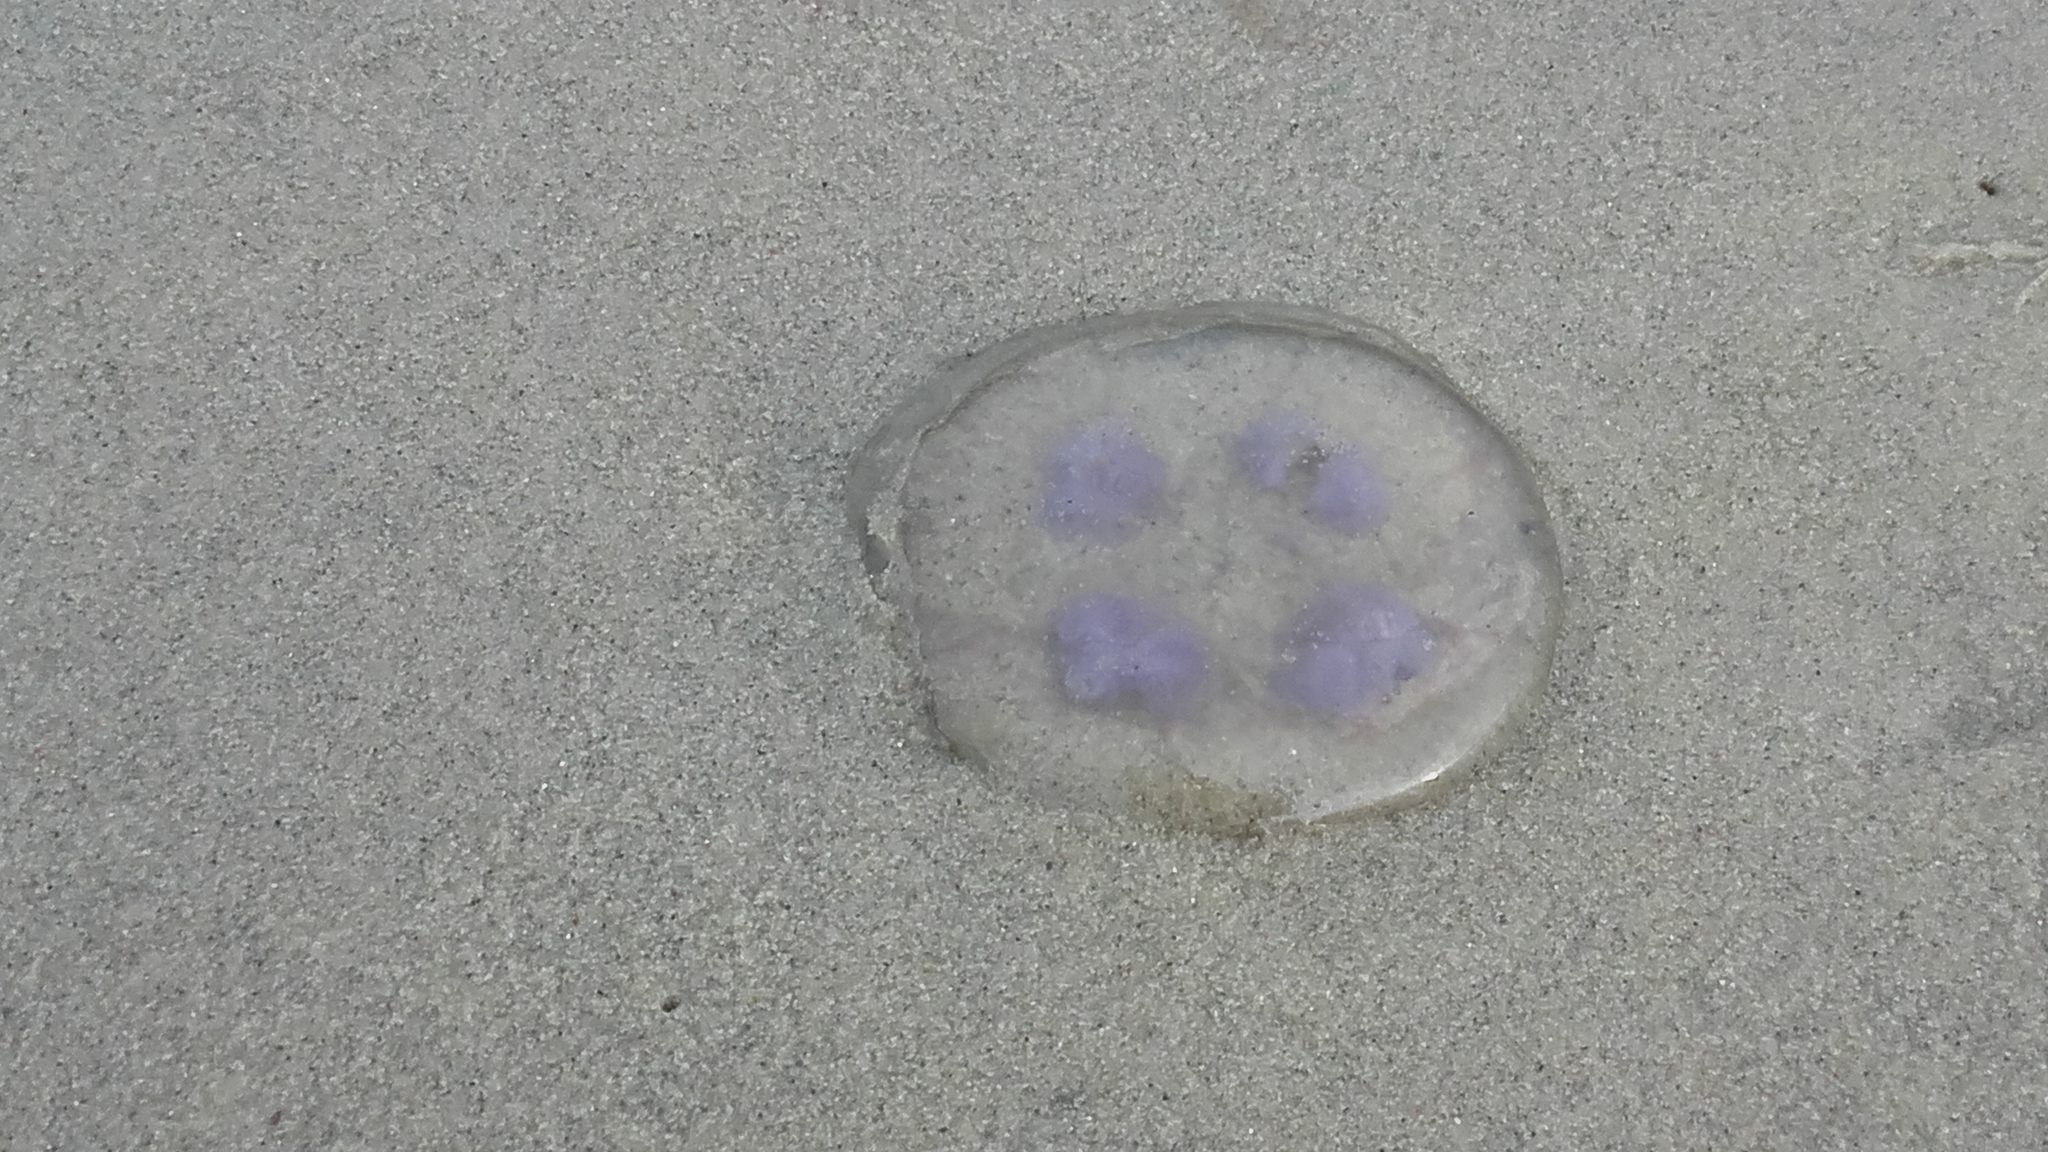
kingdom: Animalia
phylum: Cnidaria
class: Scyphozoa
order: Semaeostomeae
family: Ulmaridae
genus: Aurelia
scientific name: Aurelia aurita
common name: Moon jellyfish
